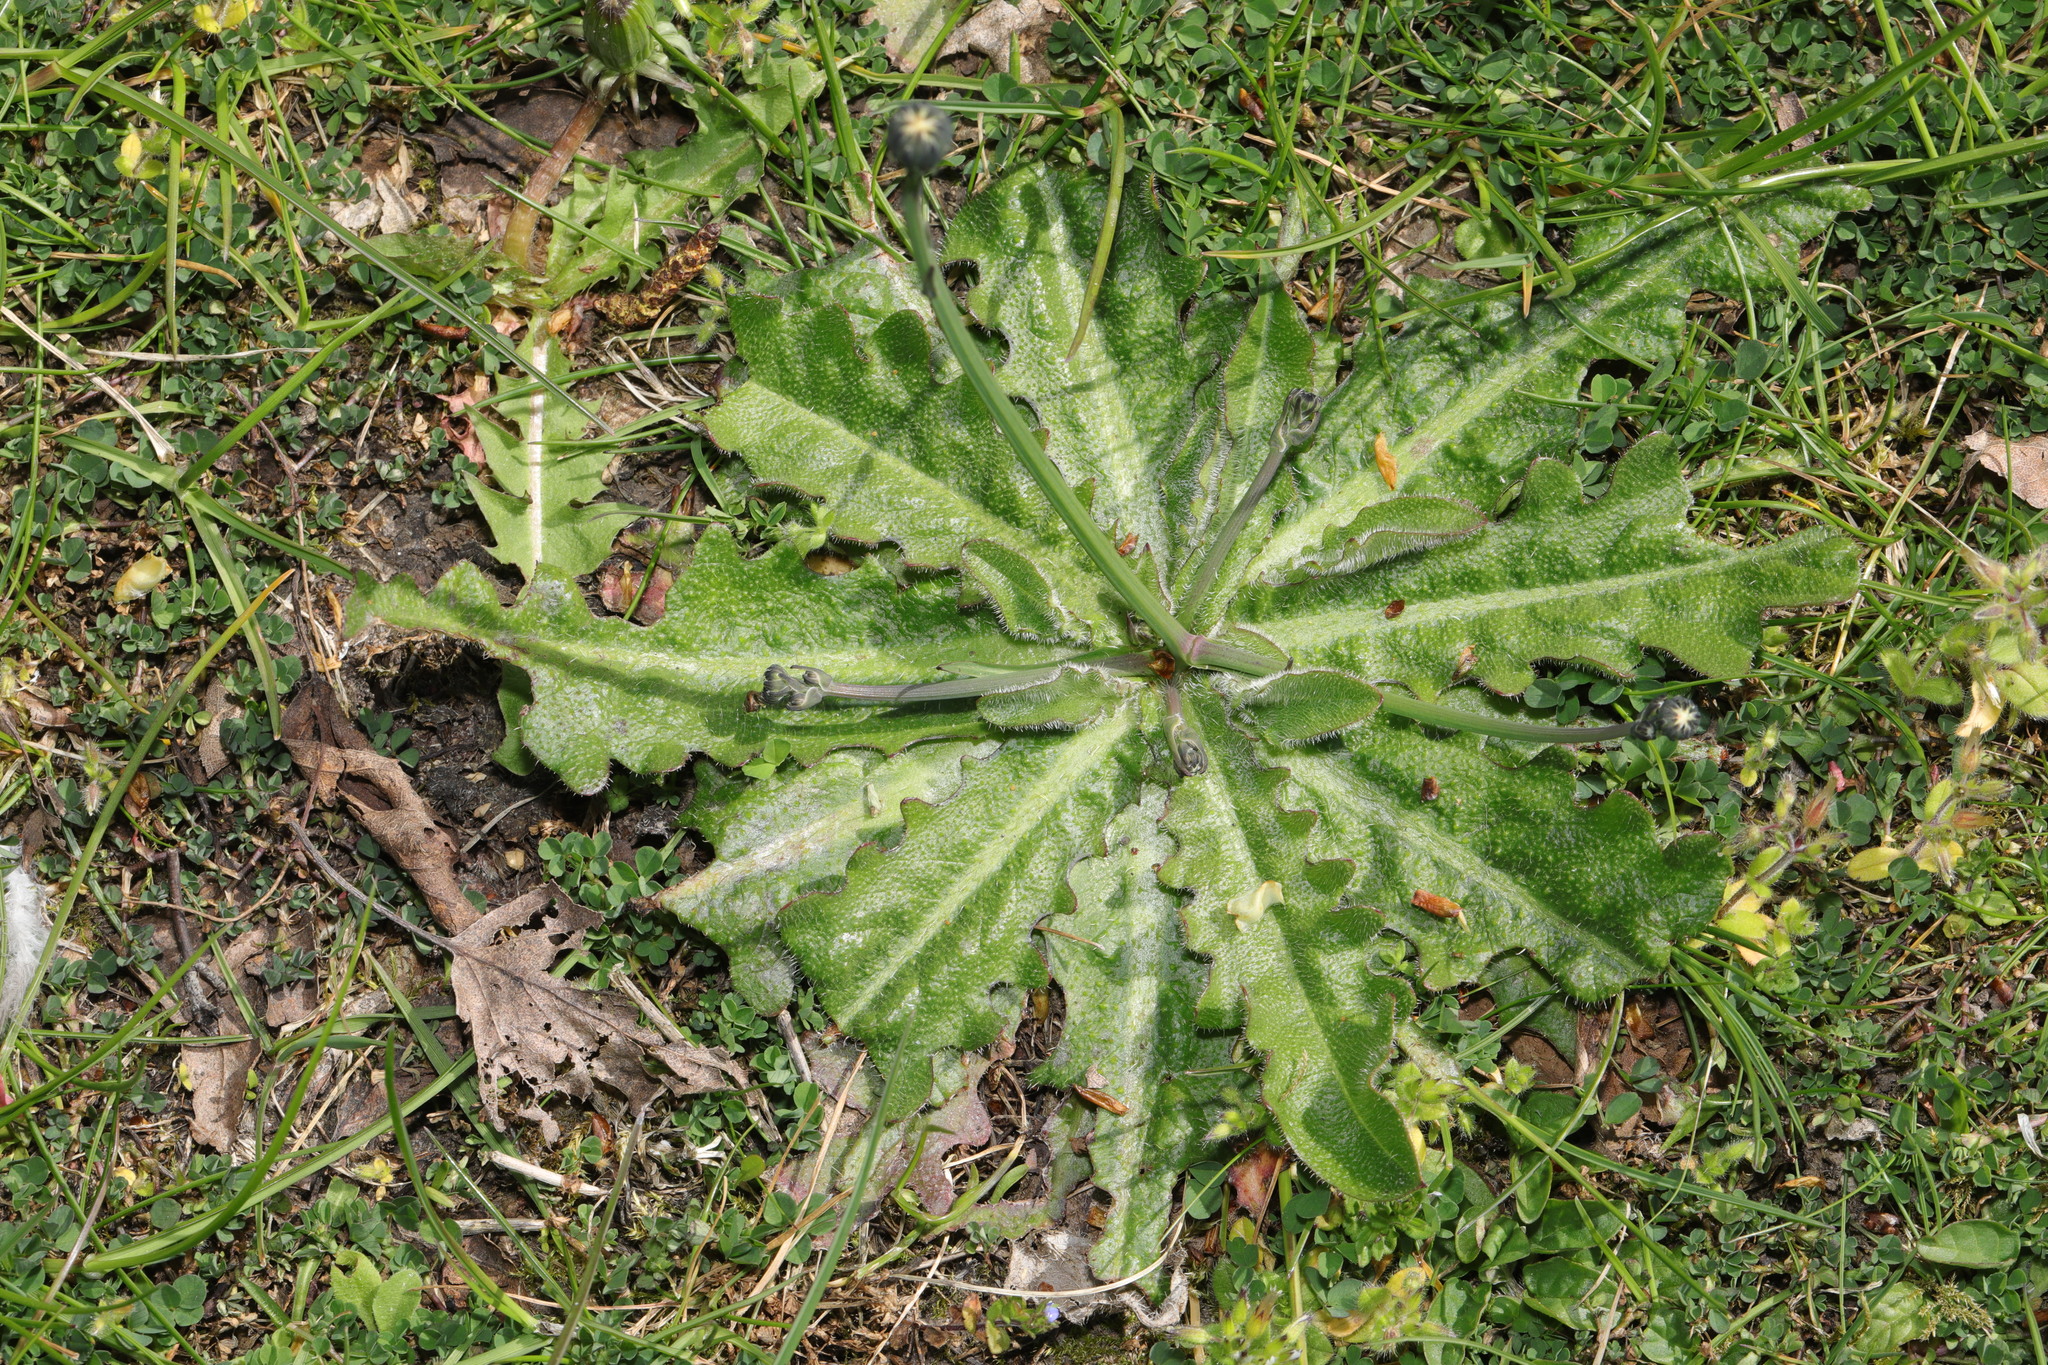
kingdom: Plantae
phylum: Tracheophyta
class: Magnoliopsida
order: Asterales
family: Asteraceae
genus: Hypochaeris
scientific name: Hypochaeris radicata
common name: Flatweed
